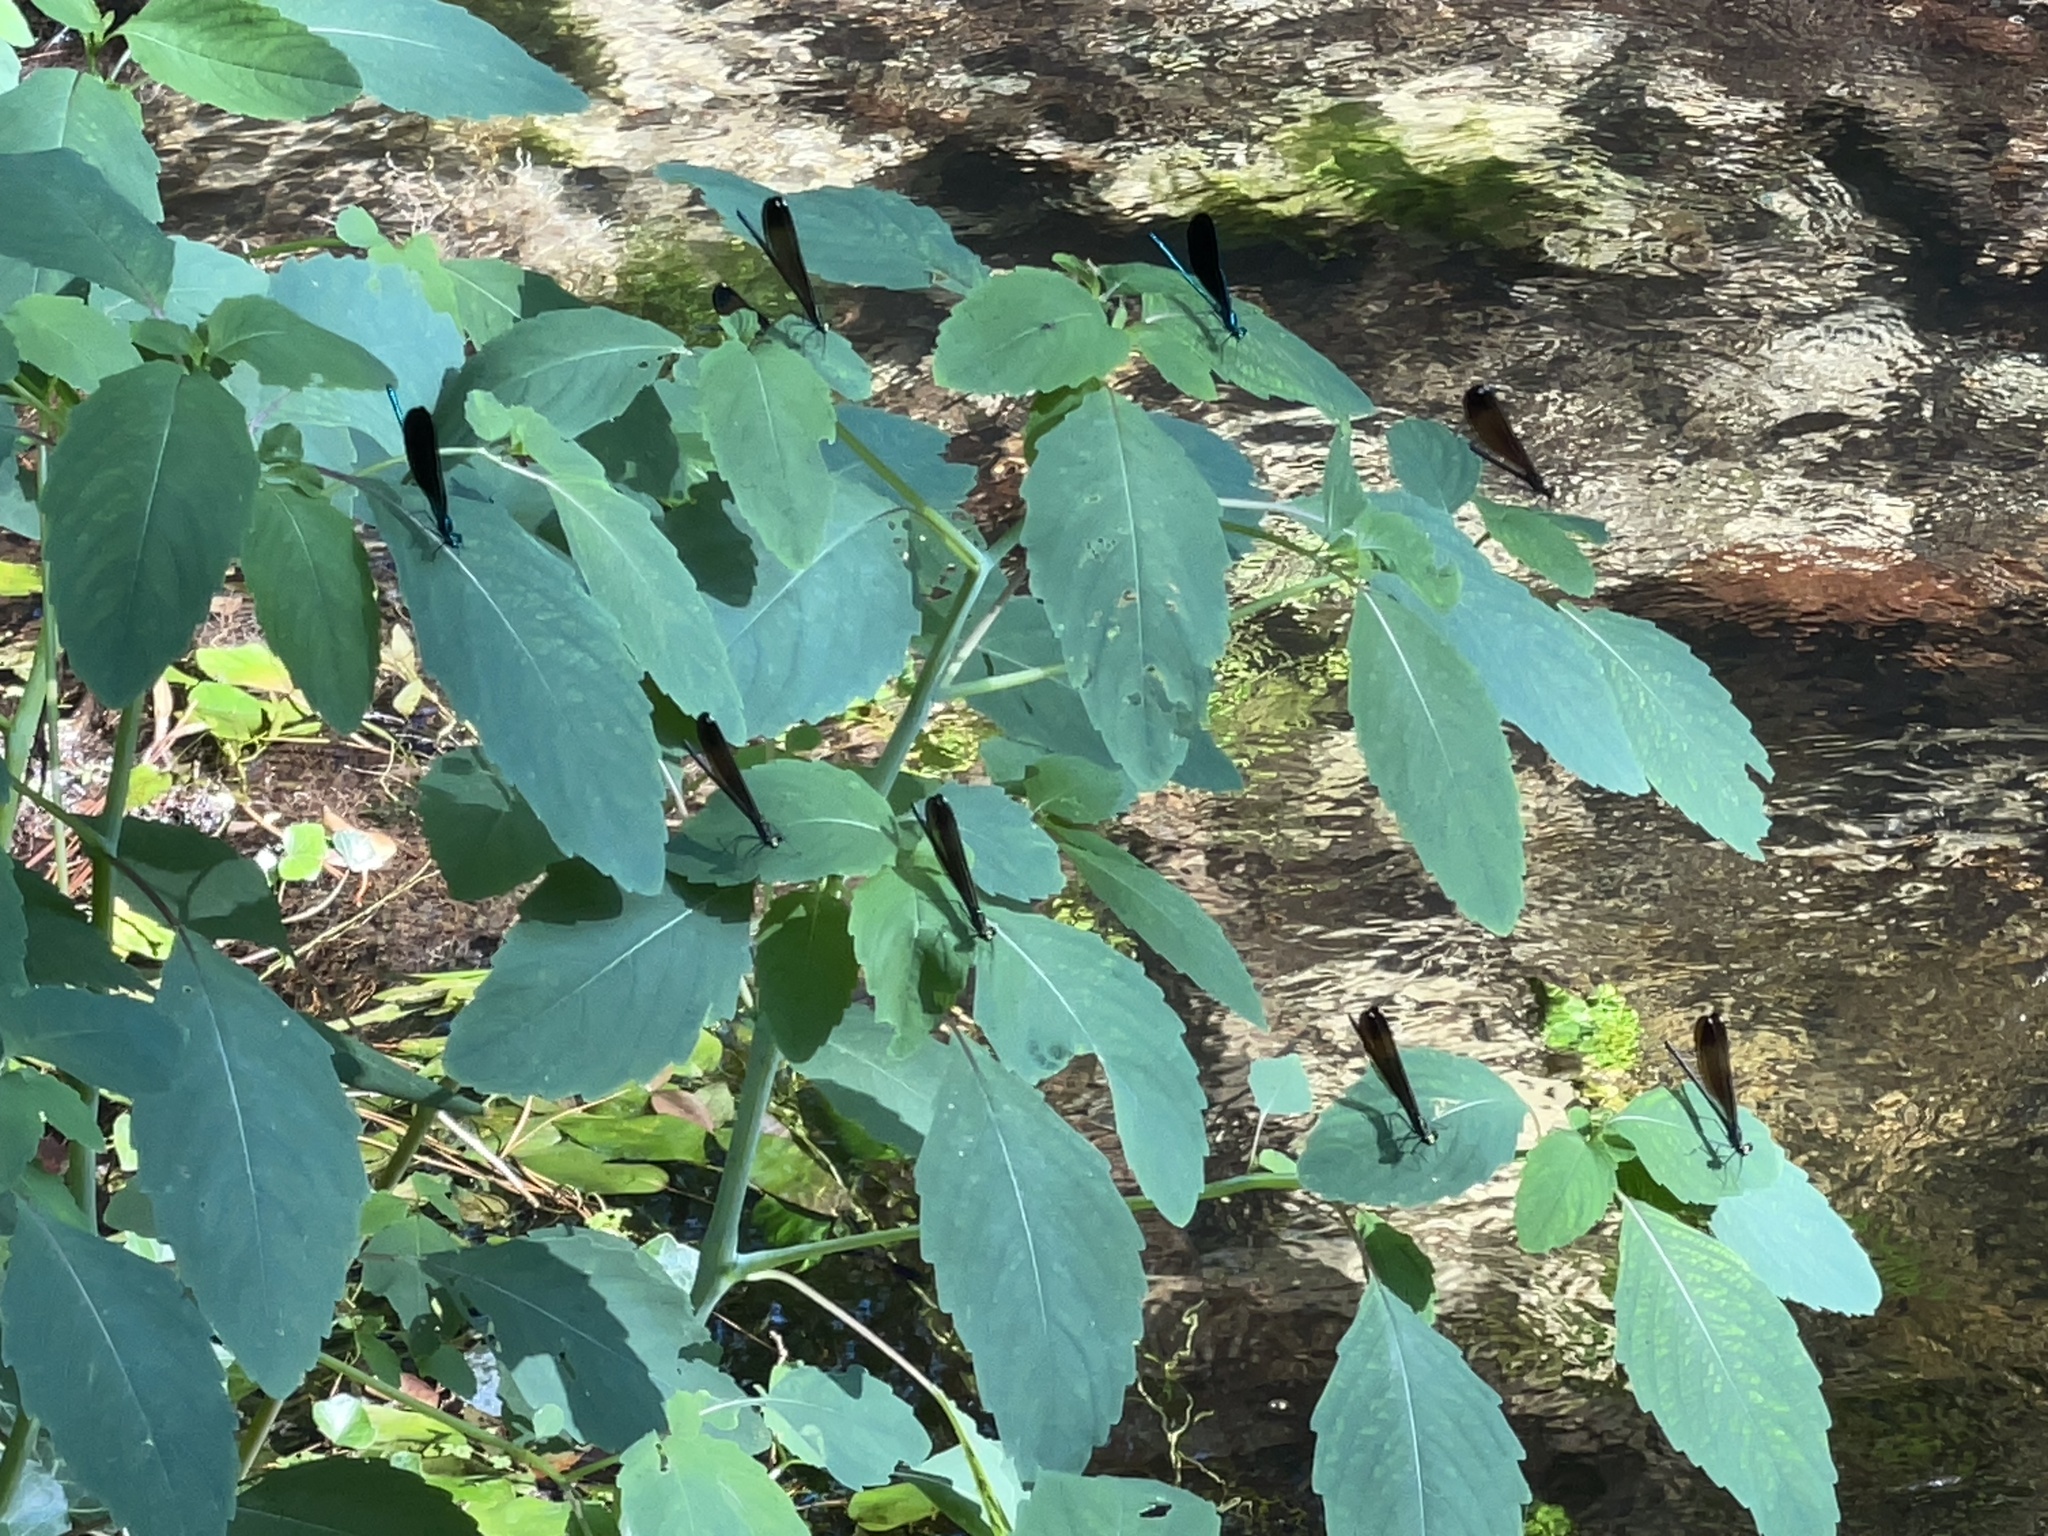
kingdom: Animalia
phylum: Arthropoda
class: Insecta
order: Odonata
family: Calopterygidae
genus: Calopteryx
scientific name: Calopteryx maculata
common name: Ebony jewelwing
